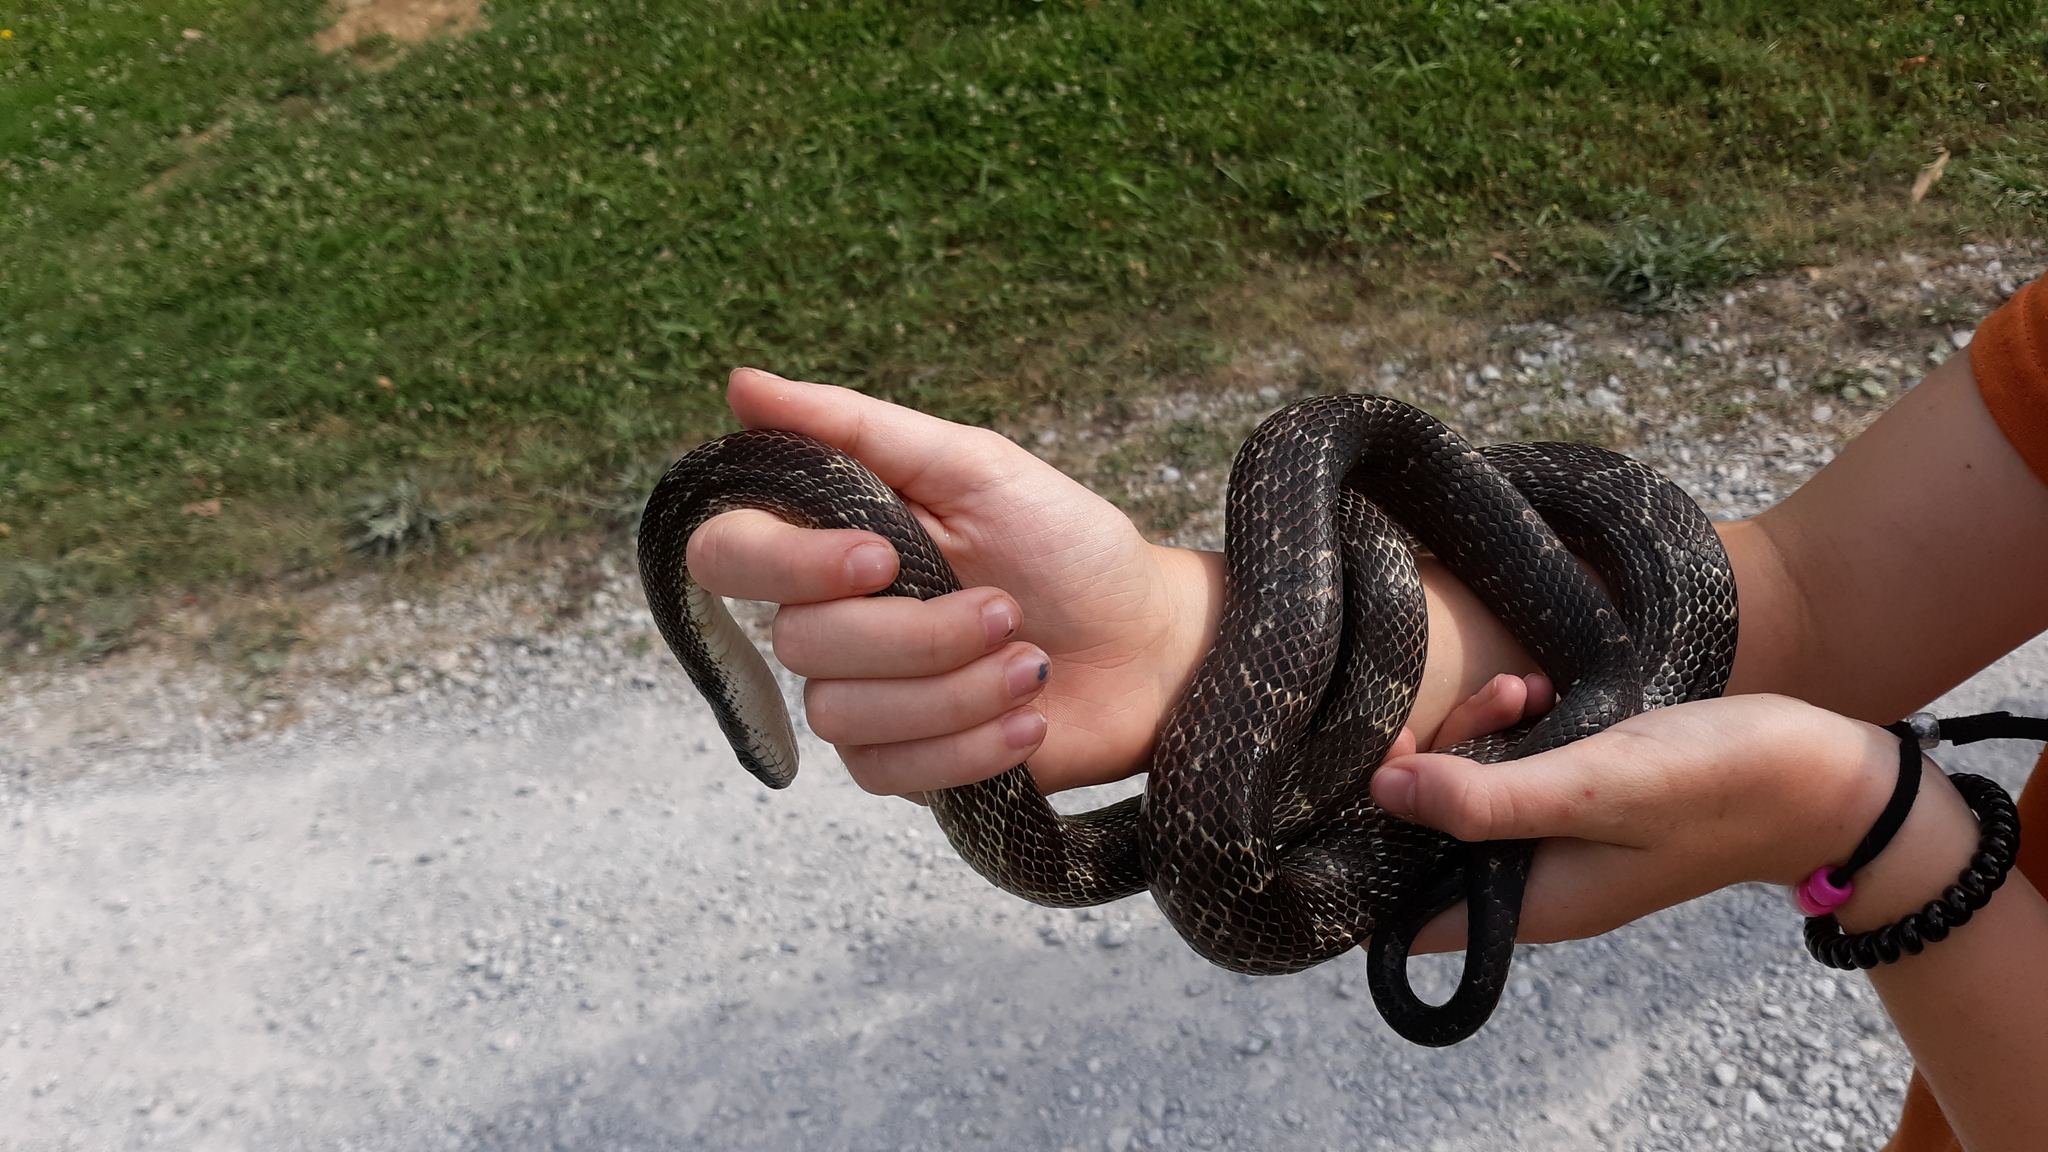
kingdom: Animalia
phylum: Chordata
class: Squamata
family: Colubridae
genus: Pantherophis
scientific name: Pantherophis spiloides
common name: Gray rat snake
